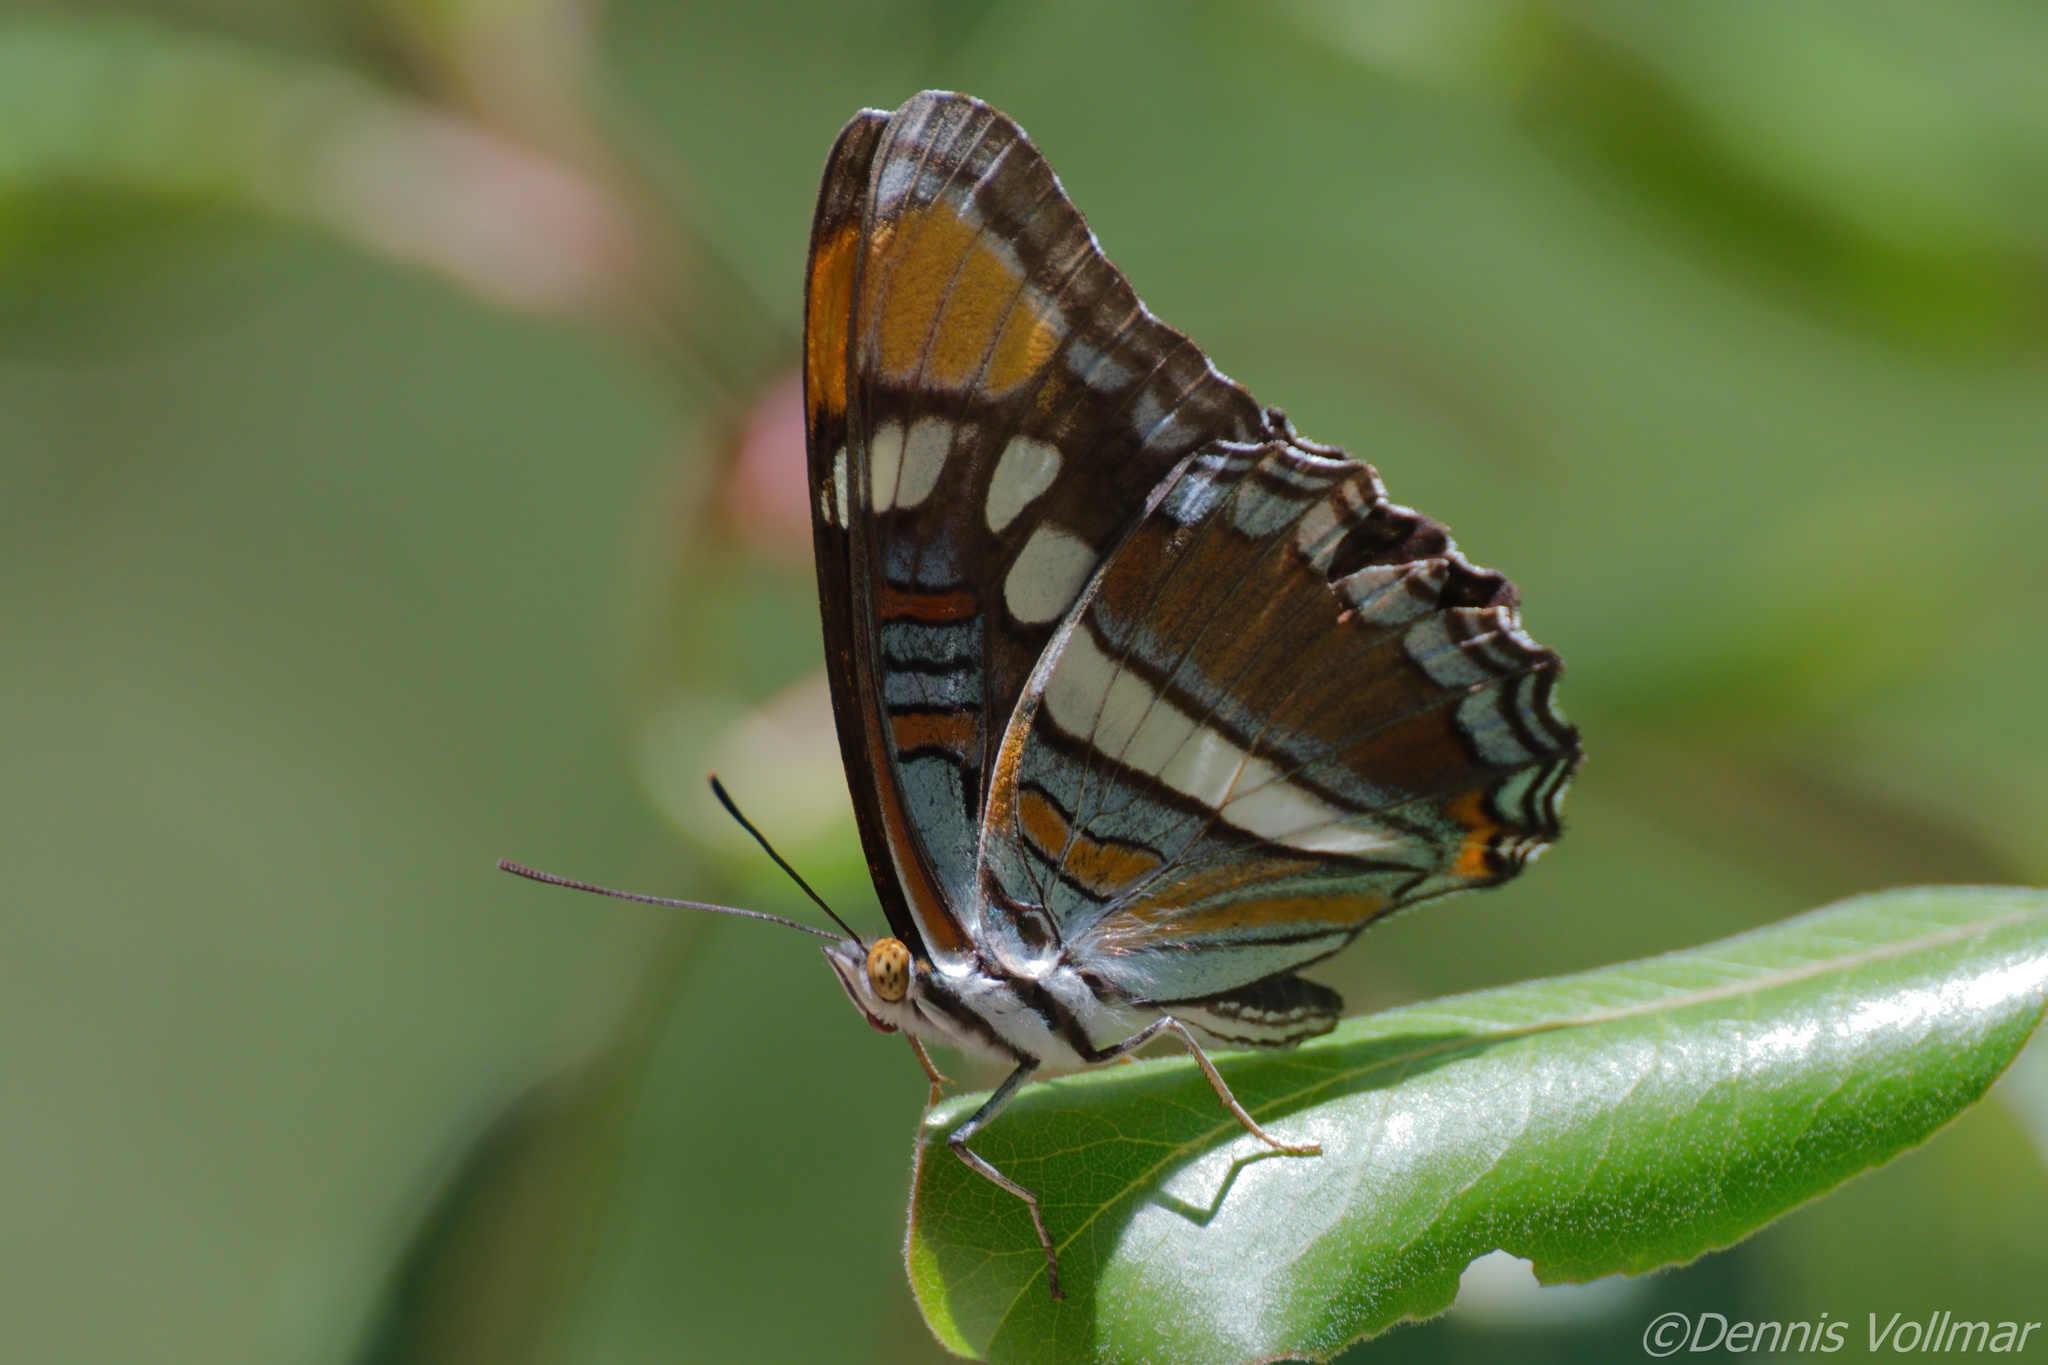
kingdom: Animalia
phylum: Arthropoda
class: Insecta
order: Lepidoptera
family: Nymphalidae
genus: Limenitis
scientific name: Limenitis bredowii
